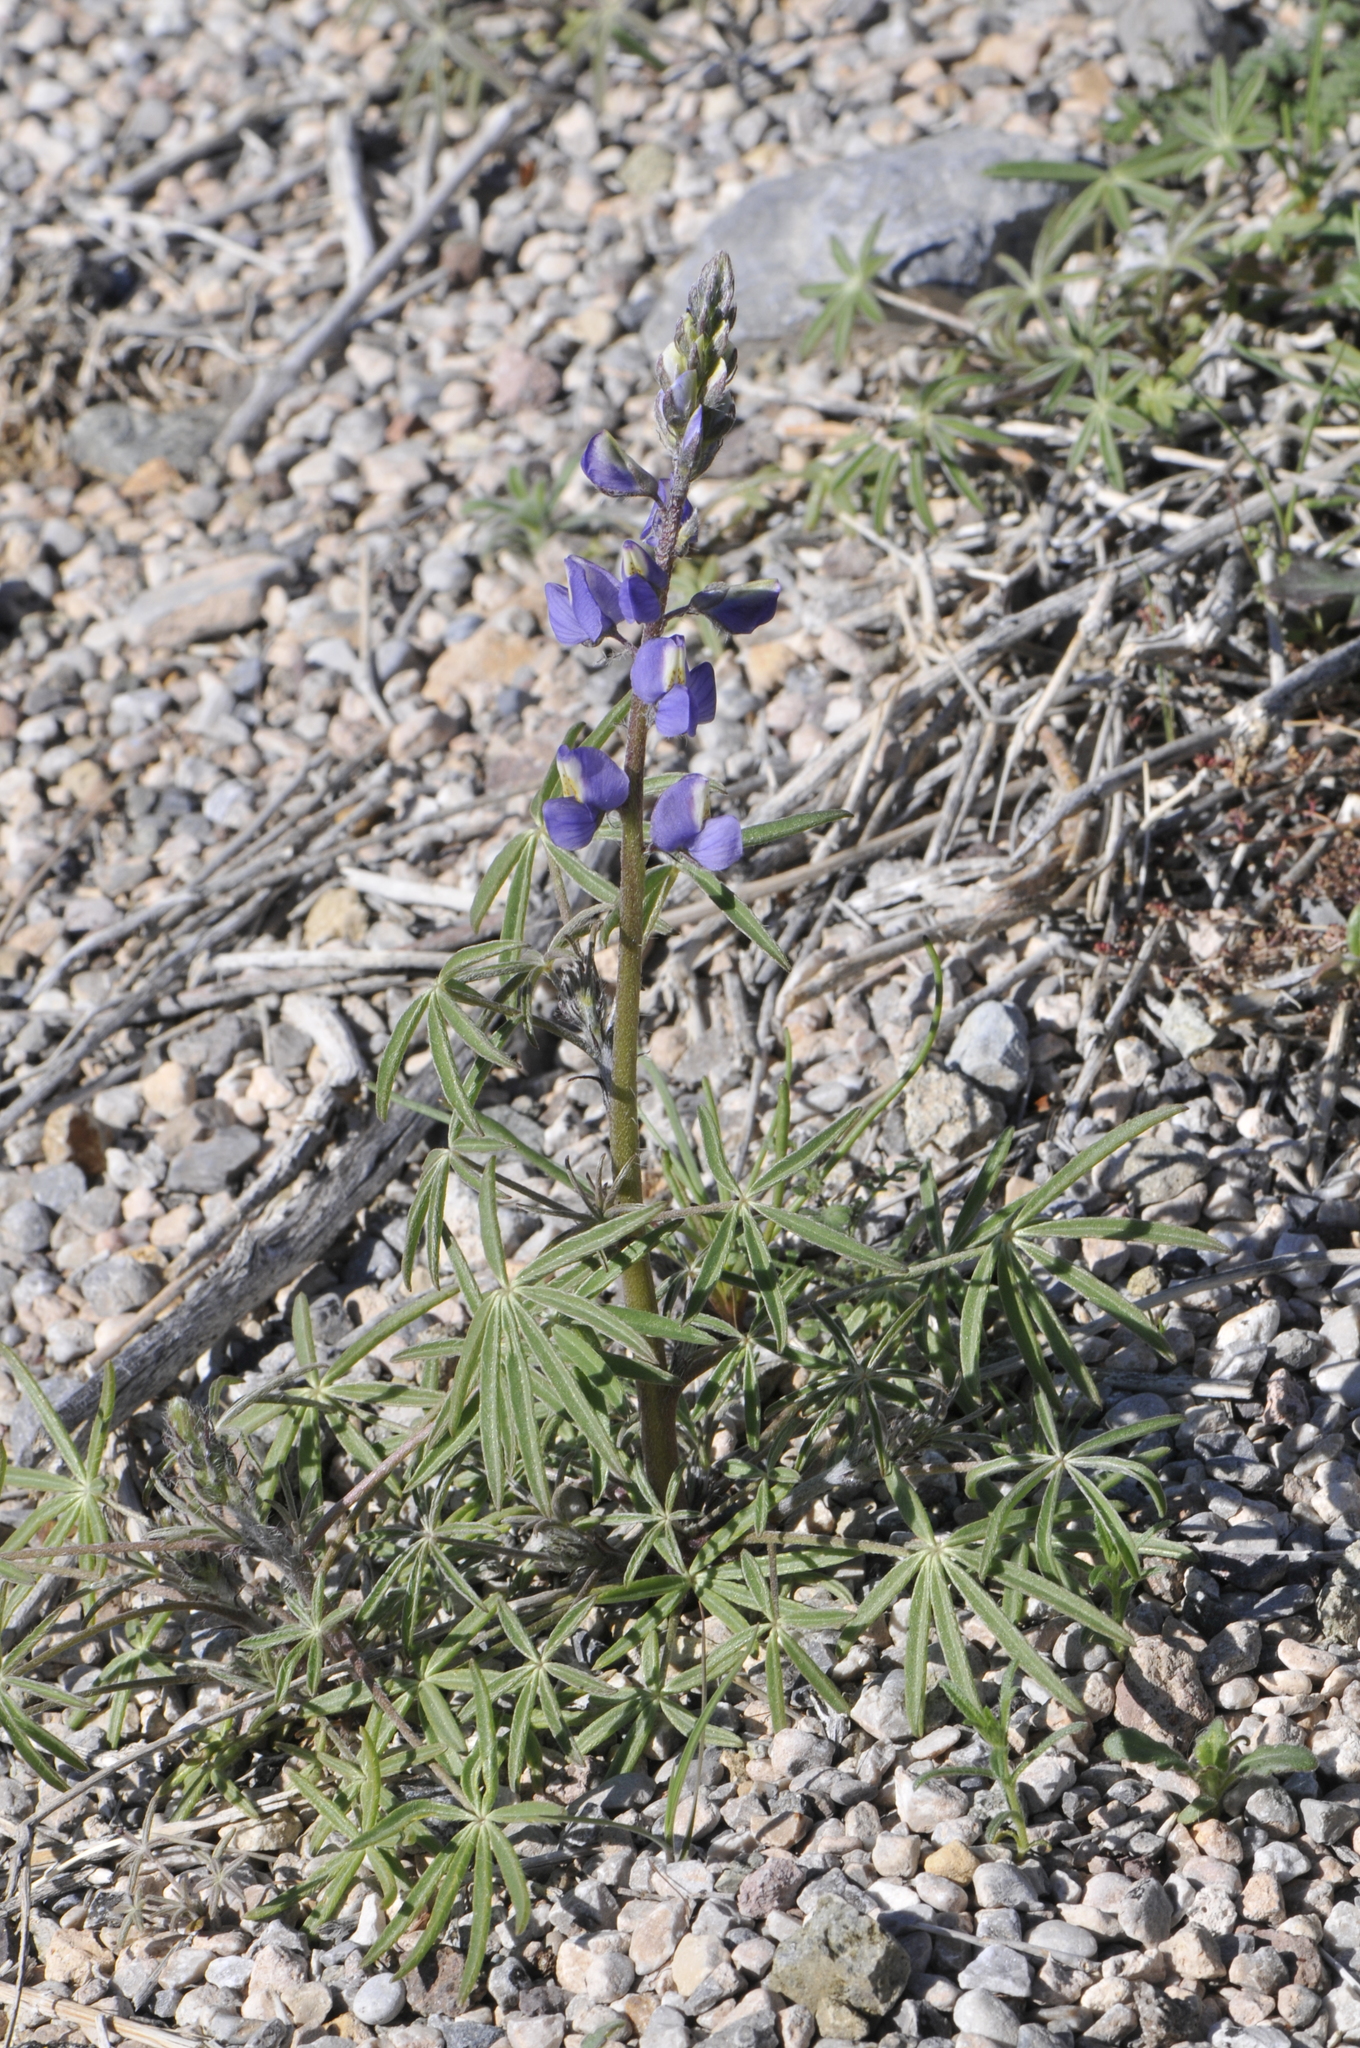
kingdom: Plantae
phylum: Tracheophyta
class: Magnoliopsida
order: Fabales
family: Fabaceae
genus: Lupinus
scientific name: Lupinus sparsiflorus
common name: Coulter's lupine
